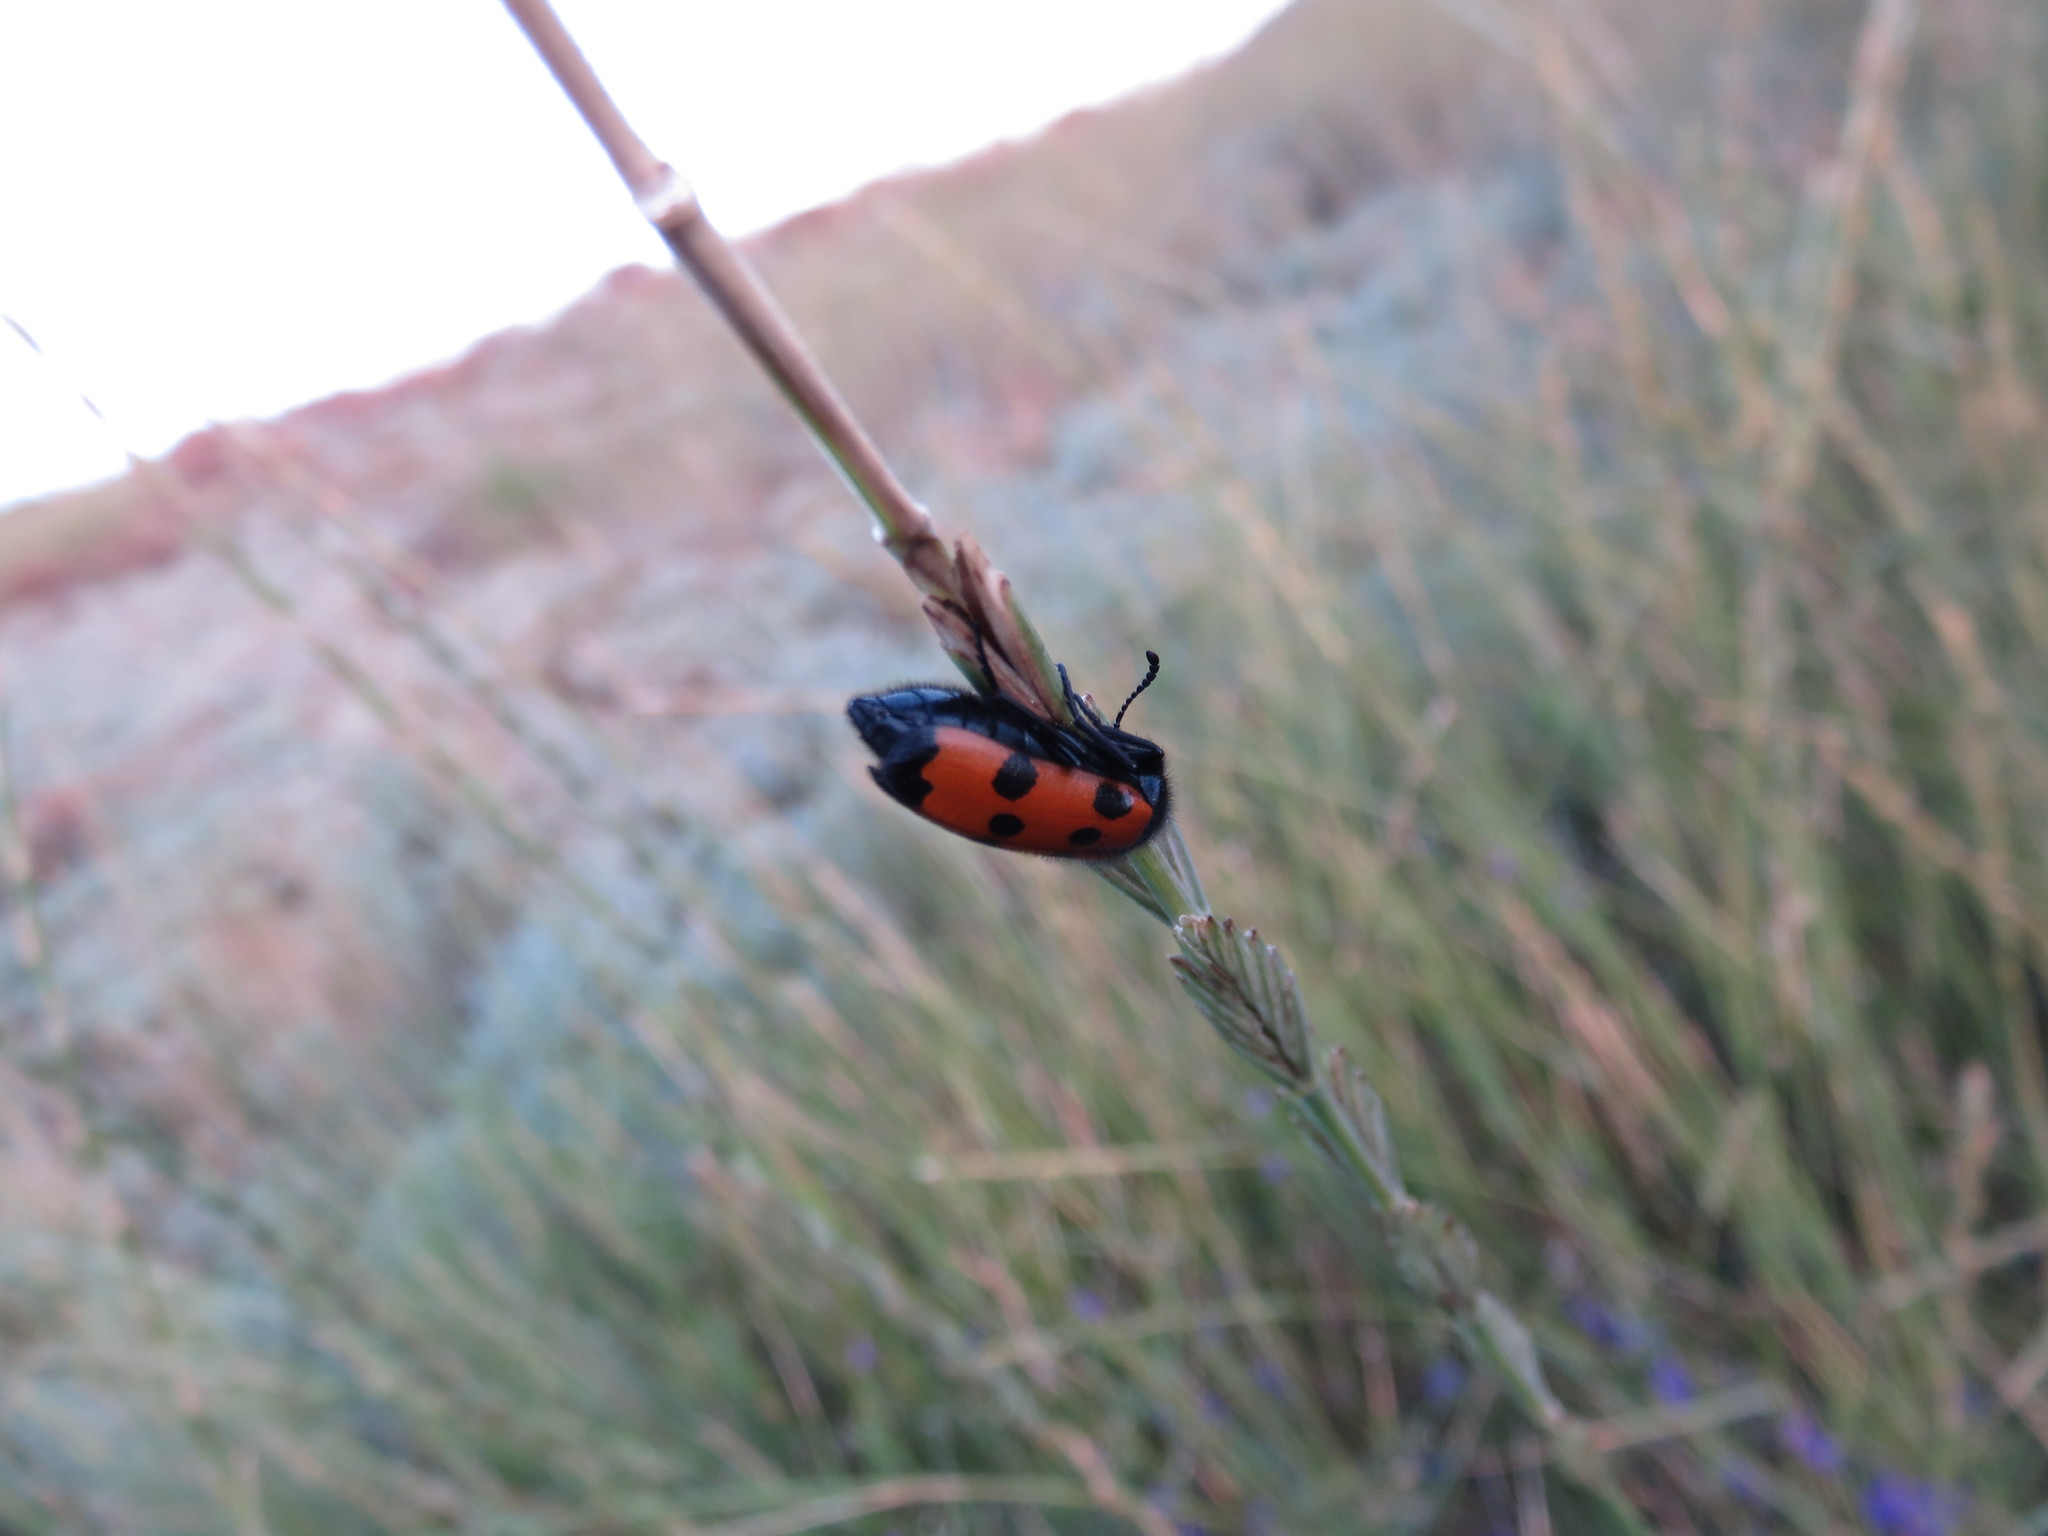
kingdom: Animalia
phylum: Arthropoda
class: Insecta
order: Coleoptera
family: Meloidae
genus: Mylabris
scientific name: Mylabris quadripunctata
